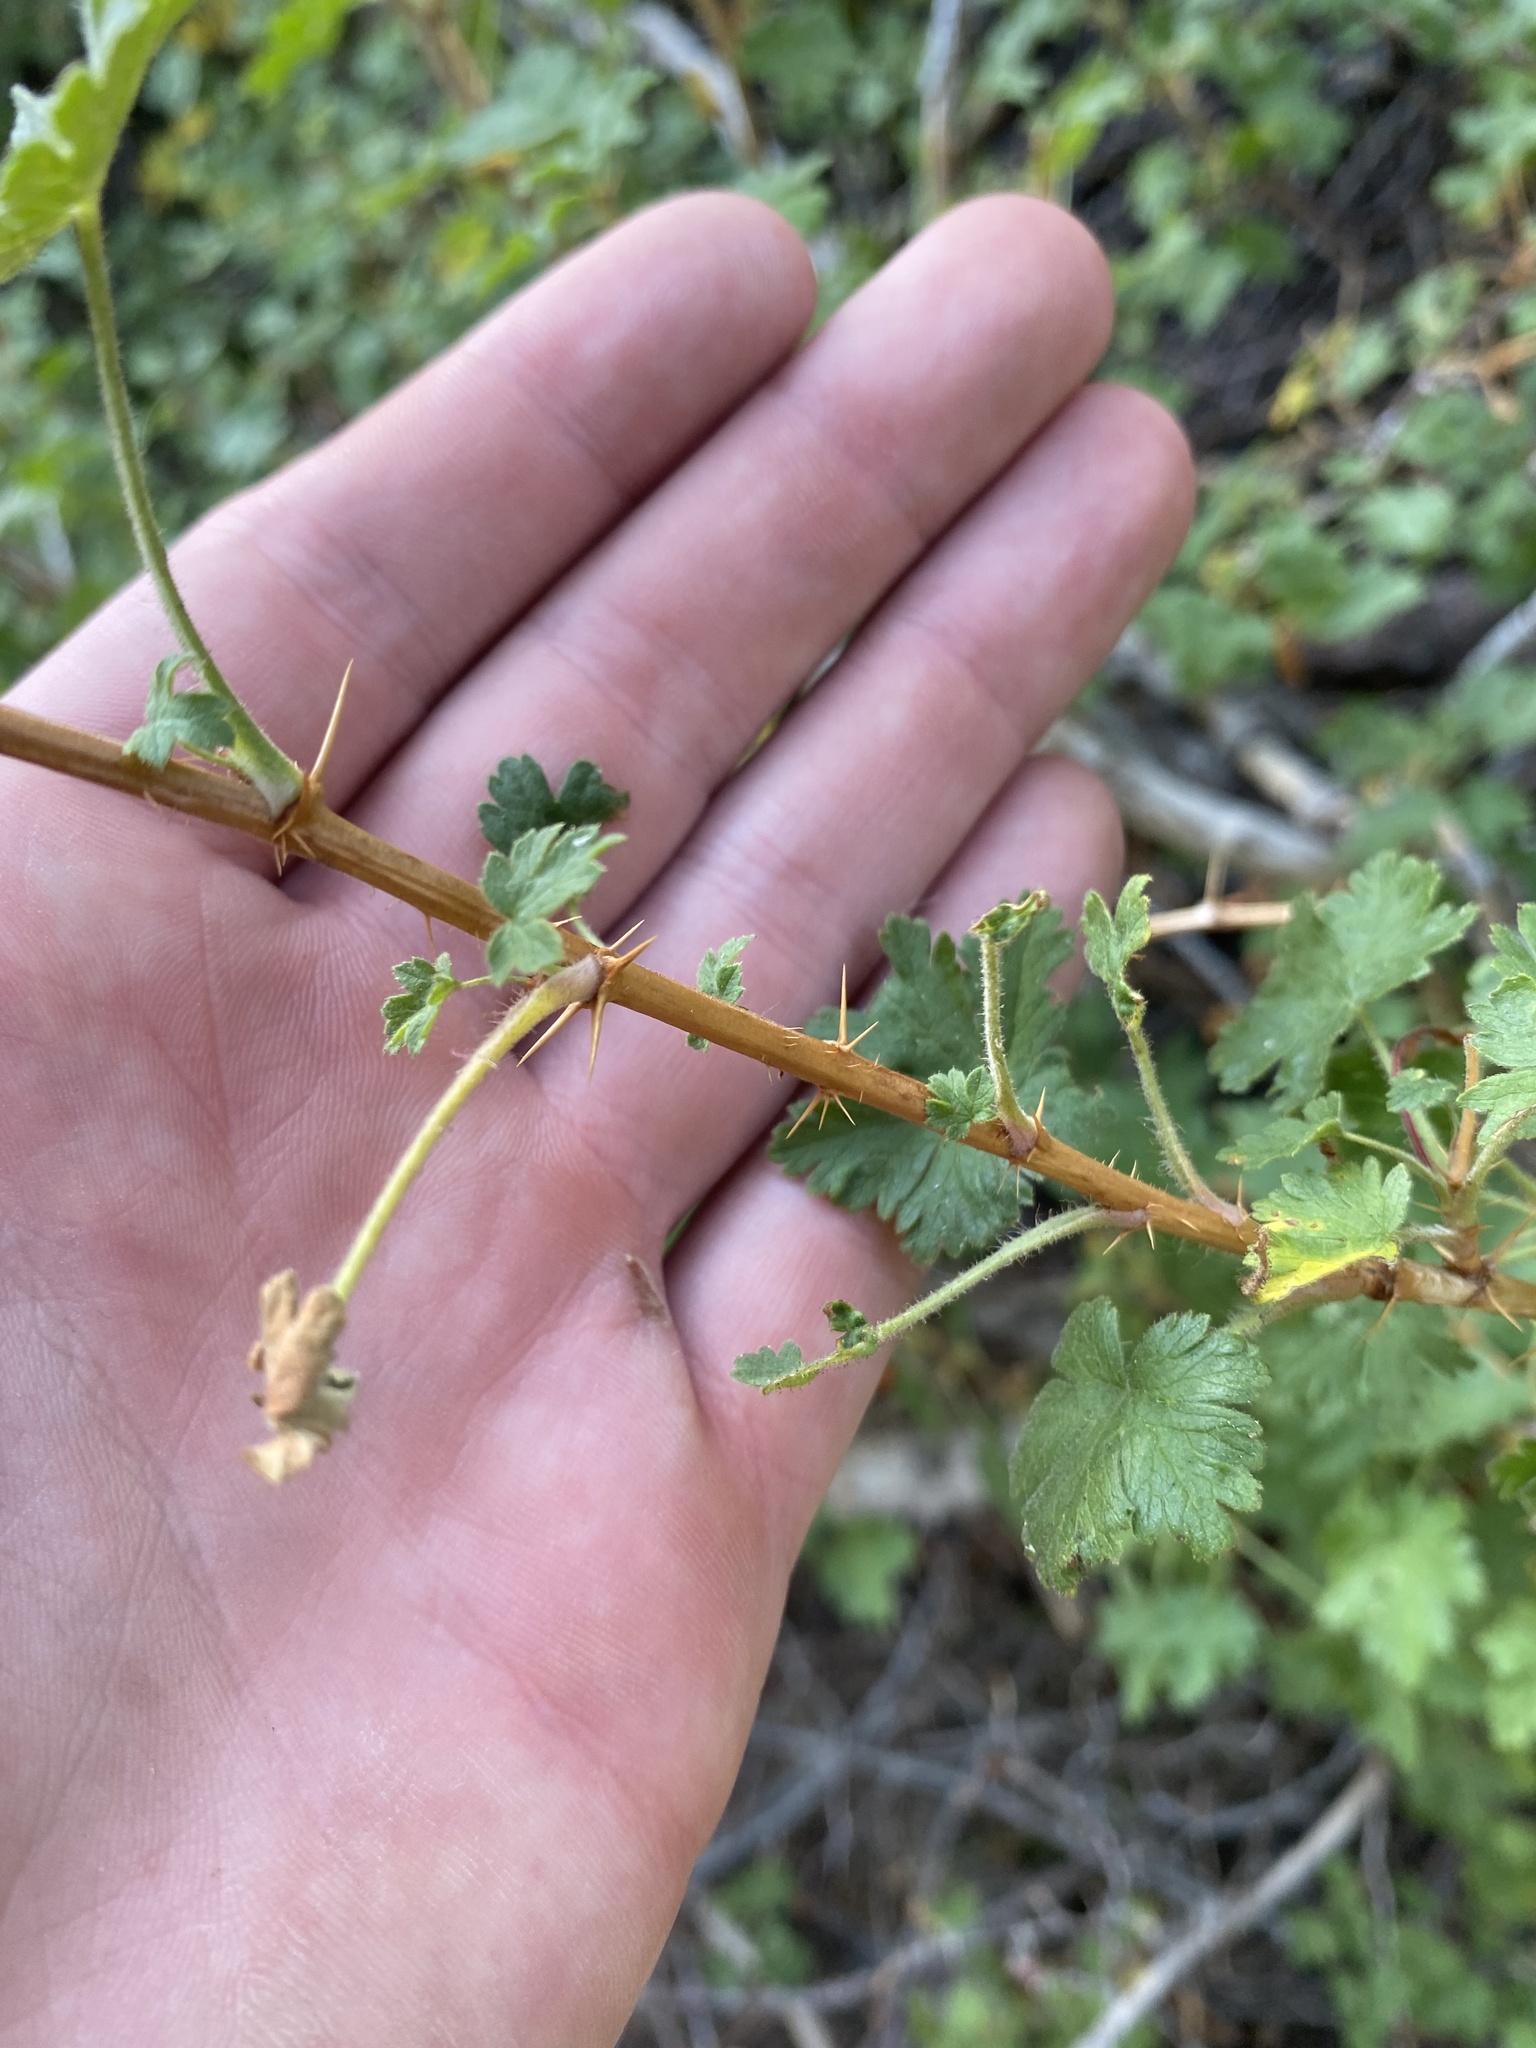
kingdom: Plantae
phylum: Tracheophyta
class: Magnoliopsida
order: Saxifragales
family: Grossulariaceae
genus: Ribes
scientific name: Ribes montigenum
